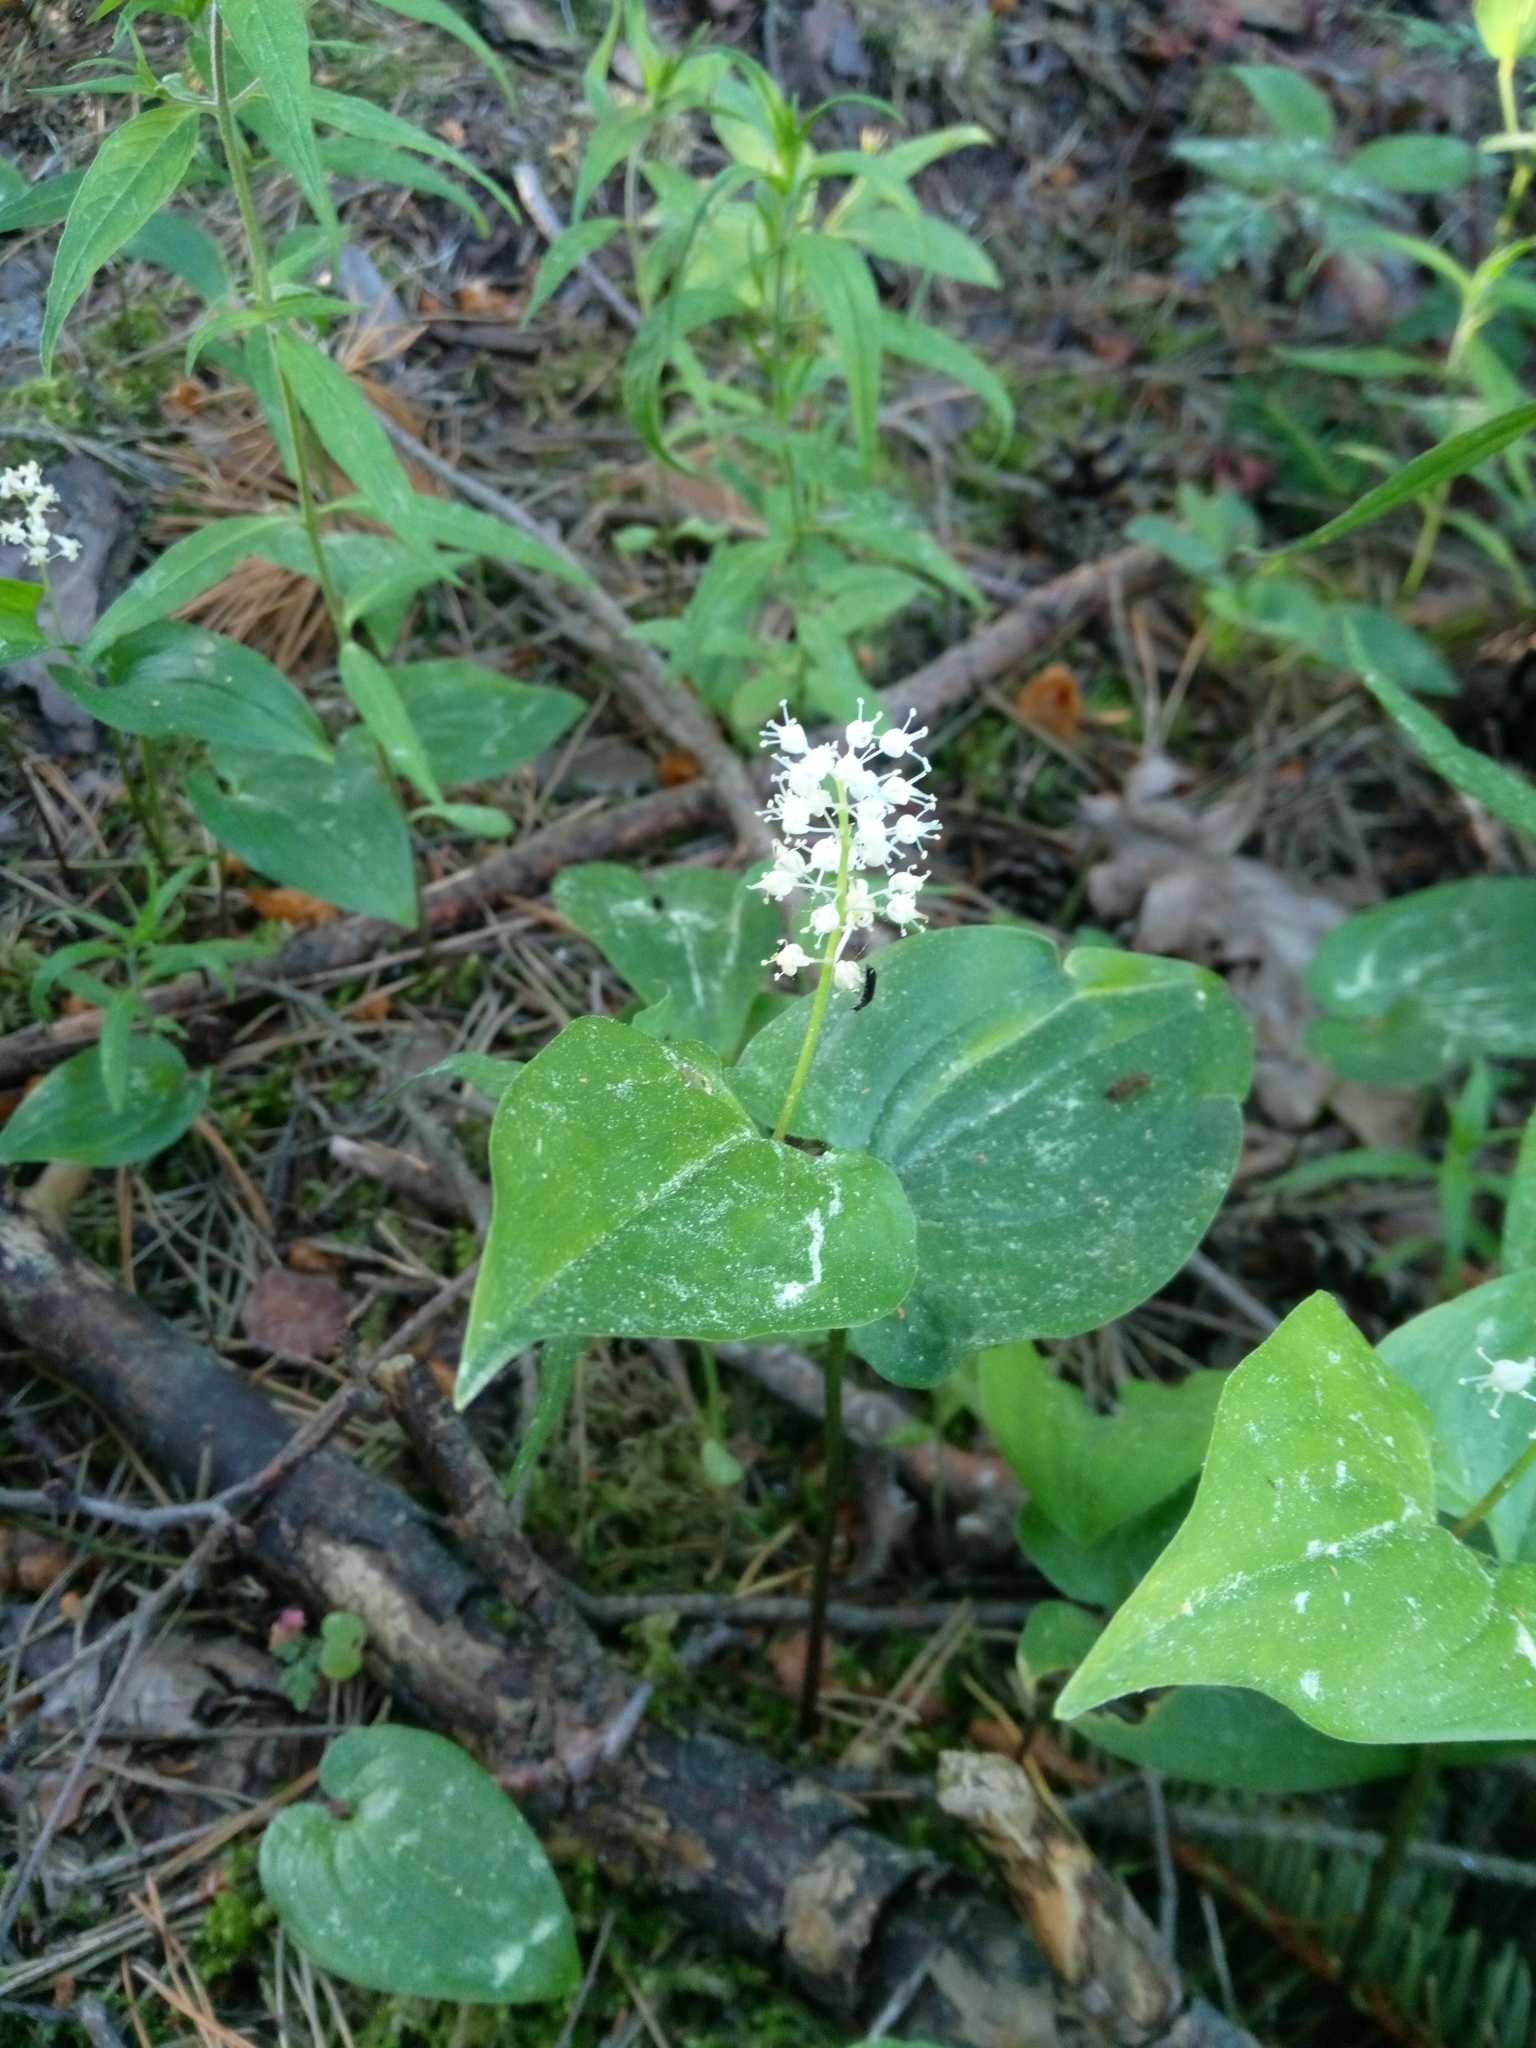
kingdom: Plantae
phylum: Tracheophyta
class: Liliopsida
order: Asparagales
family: Asparagaceae
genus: Maianthemum
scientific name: Maianthemum bifolium
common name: May lily
